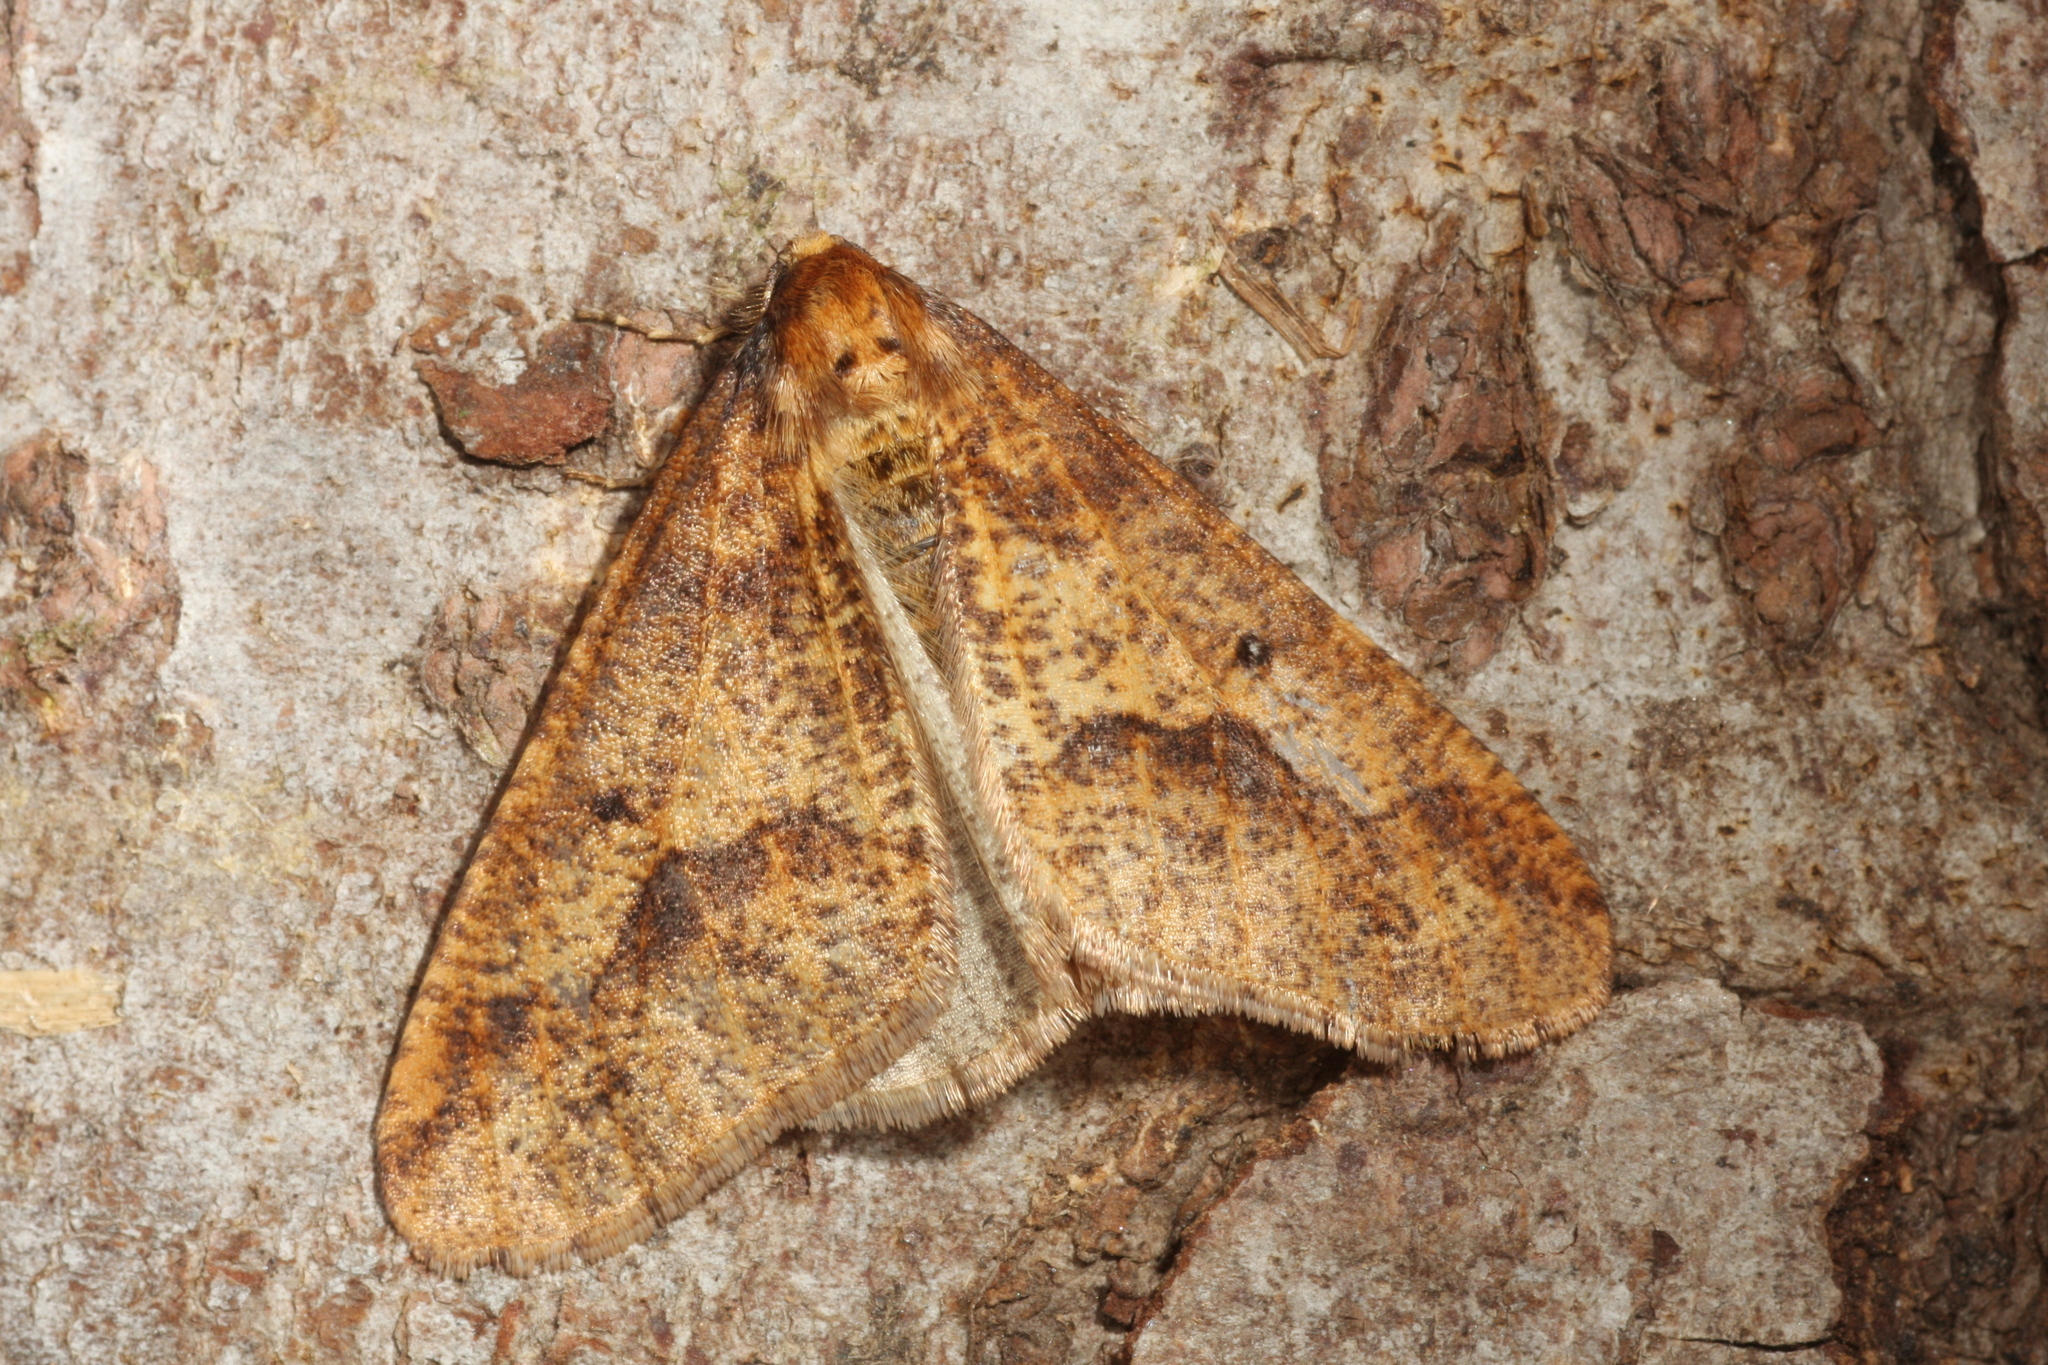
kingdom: Animalia
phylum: Arthropoda
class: Insecta
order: Lepidoptera
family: Geometridae
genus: Erannis
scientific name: Erannis defoliaria
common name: Mottled umber
